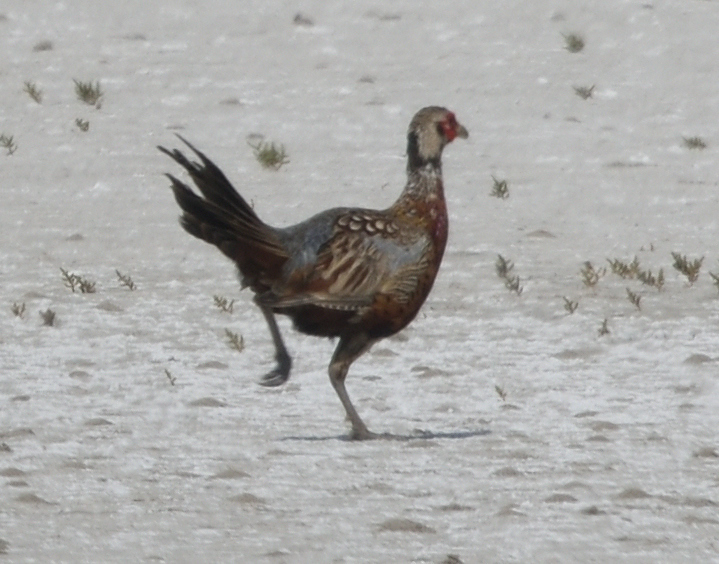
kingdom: Animalia
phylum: Chordata
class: Aves
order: Galliformes
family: Phasianidae
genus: Phasianus
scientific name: Phasianus colchicus
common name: Common pheasant
